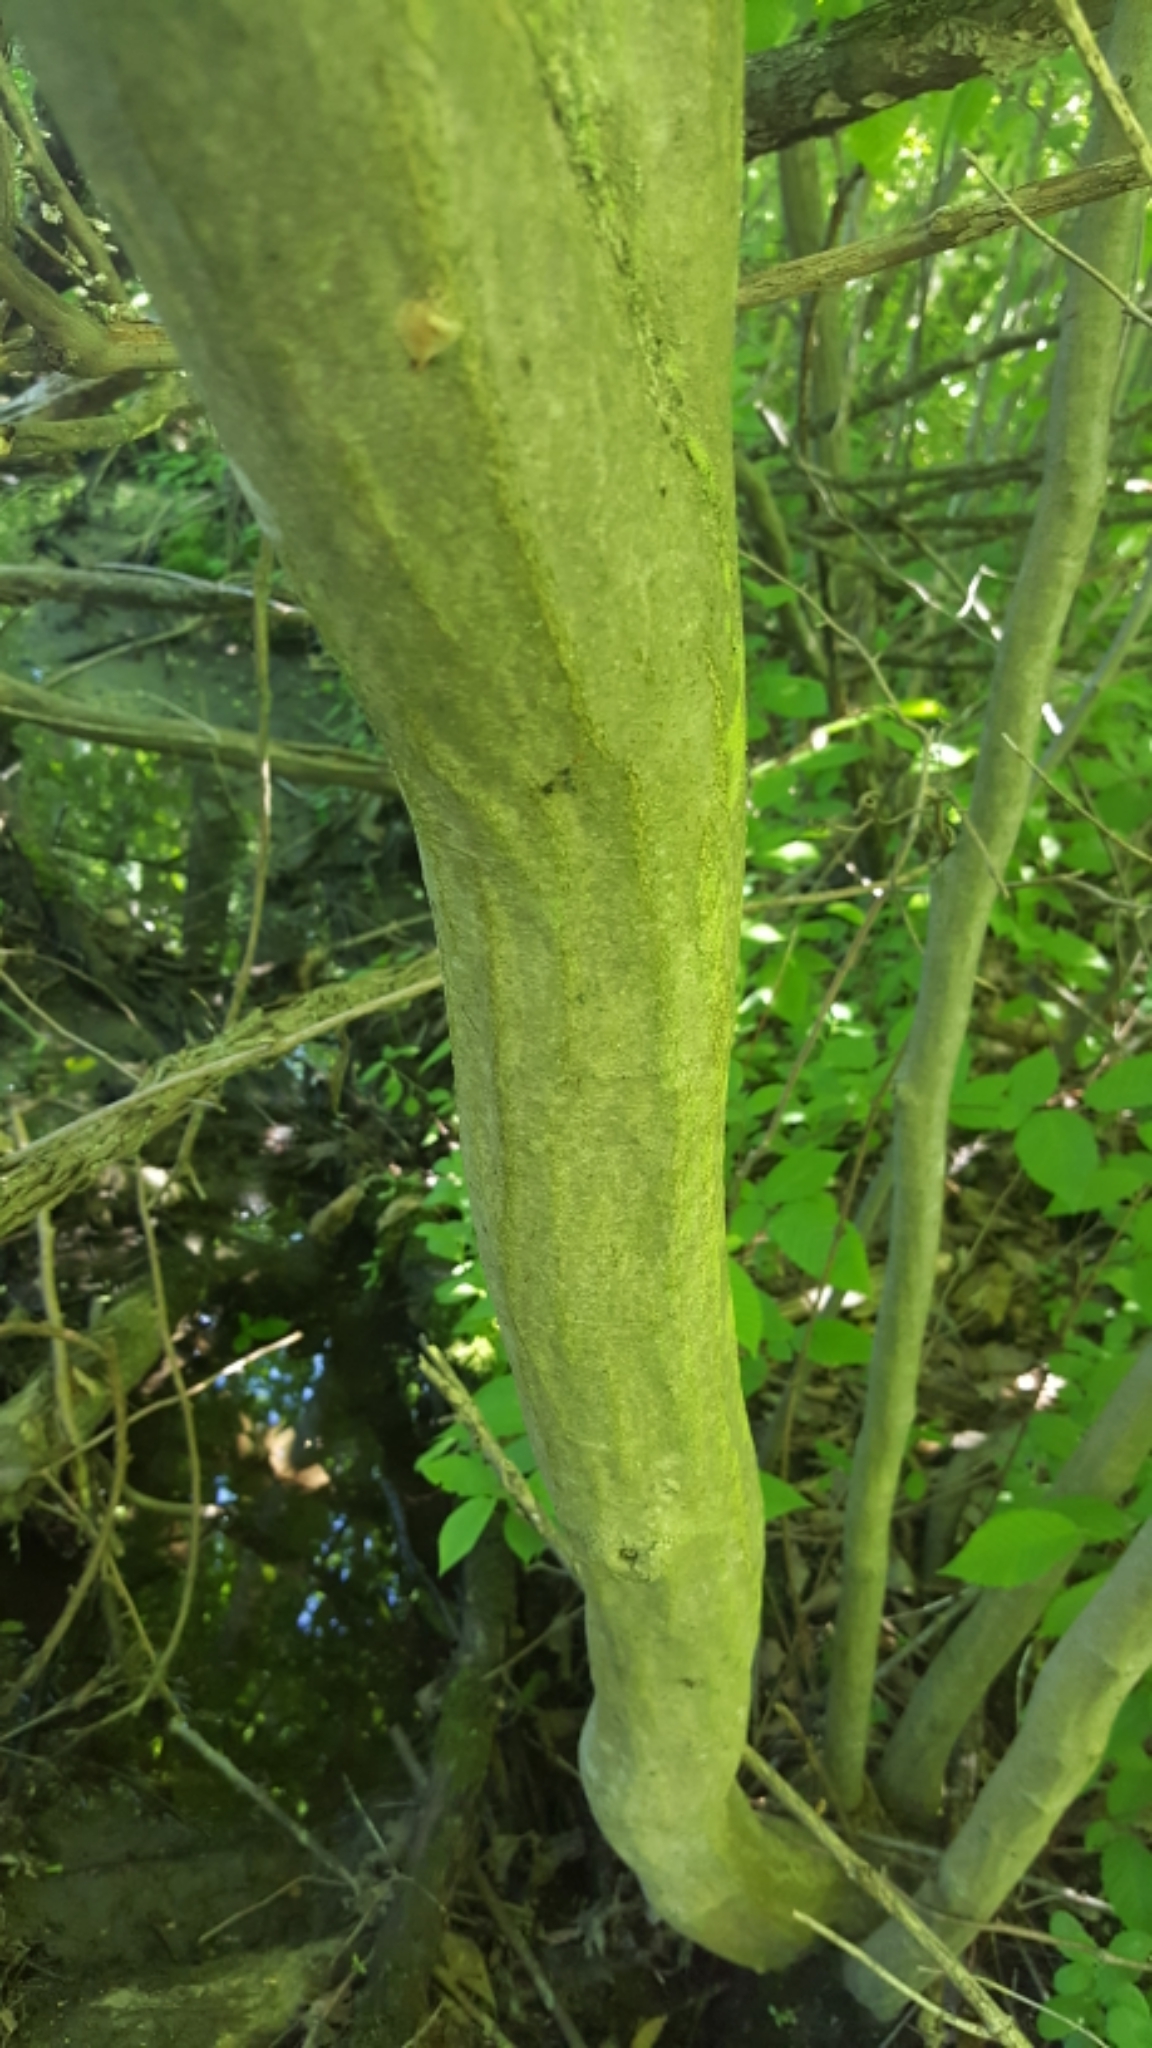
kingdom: Plantae
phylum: Tracheophyta
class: Magnoliopsida
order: Fagales
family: Betulaceae
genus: Carpinus
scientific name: Carpinus caroliniana
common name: American hornbeam
